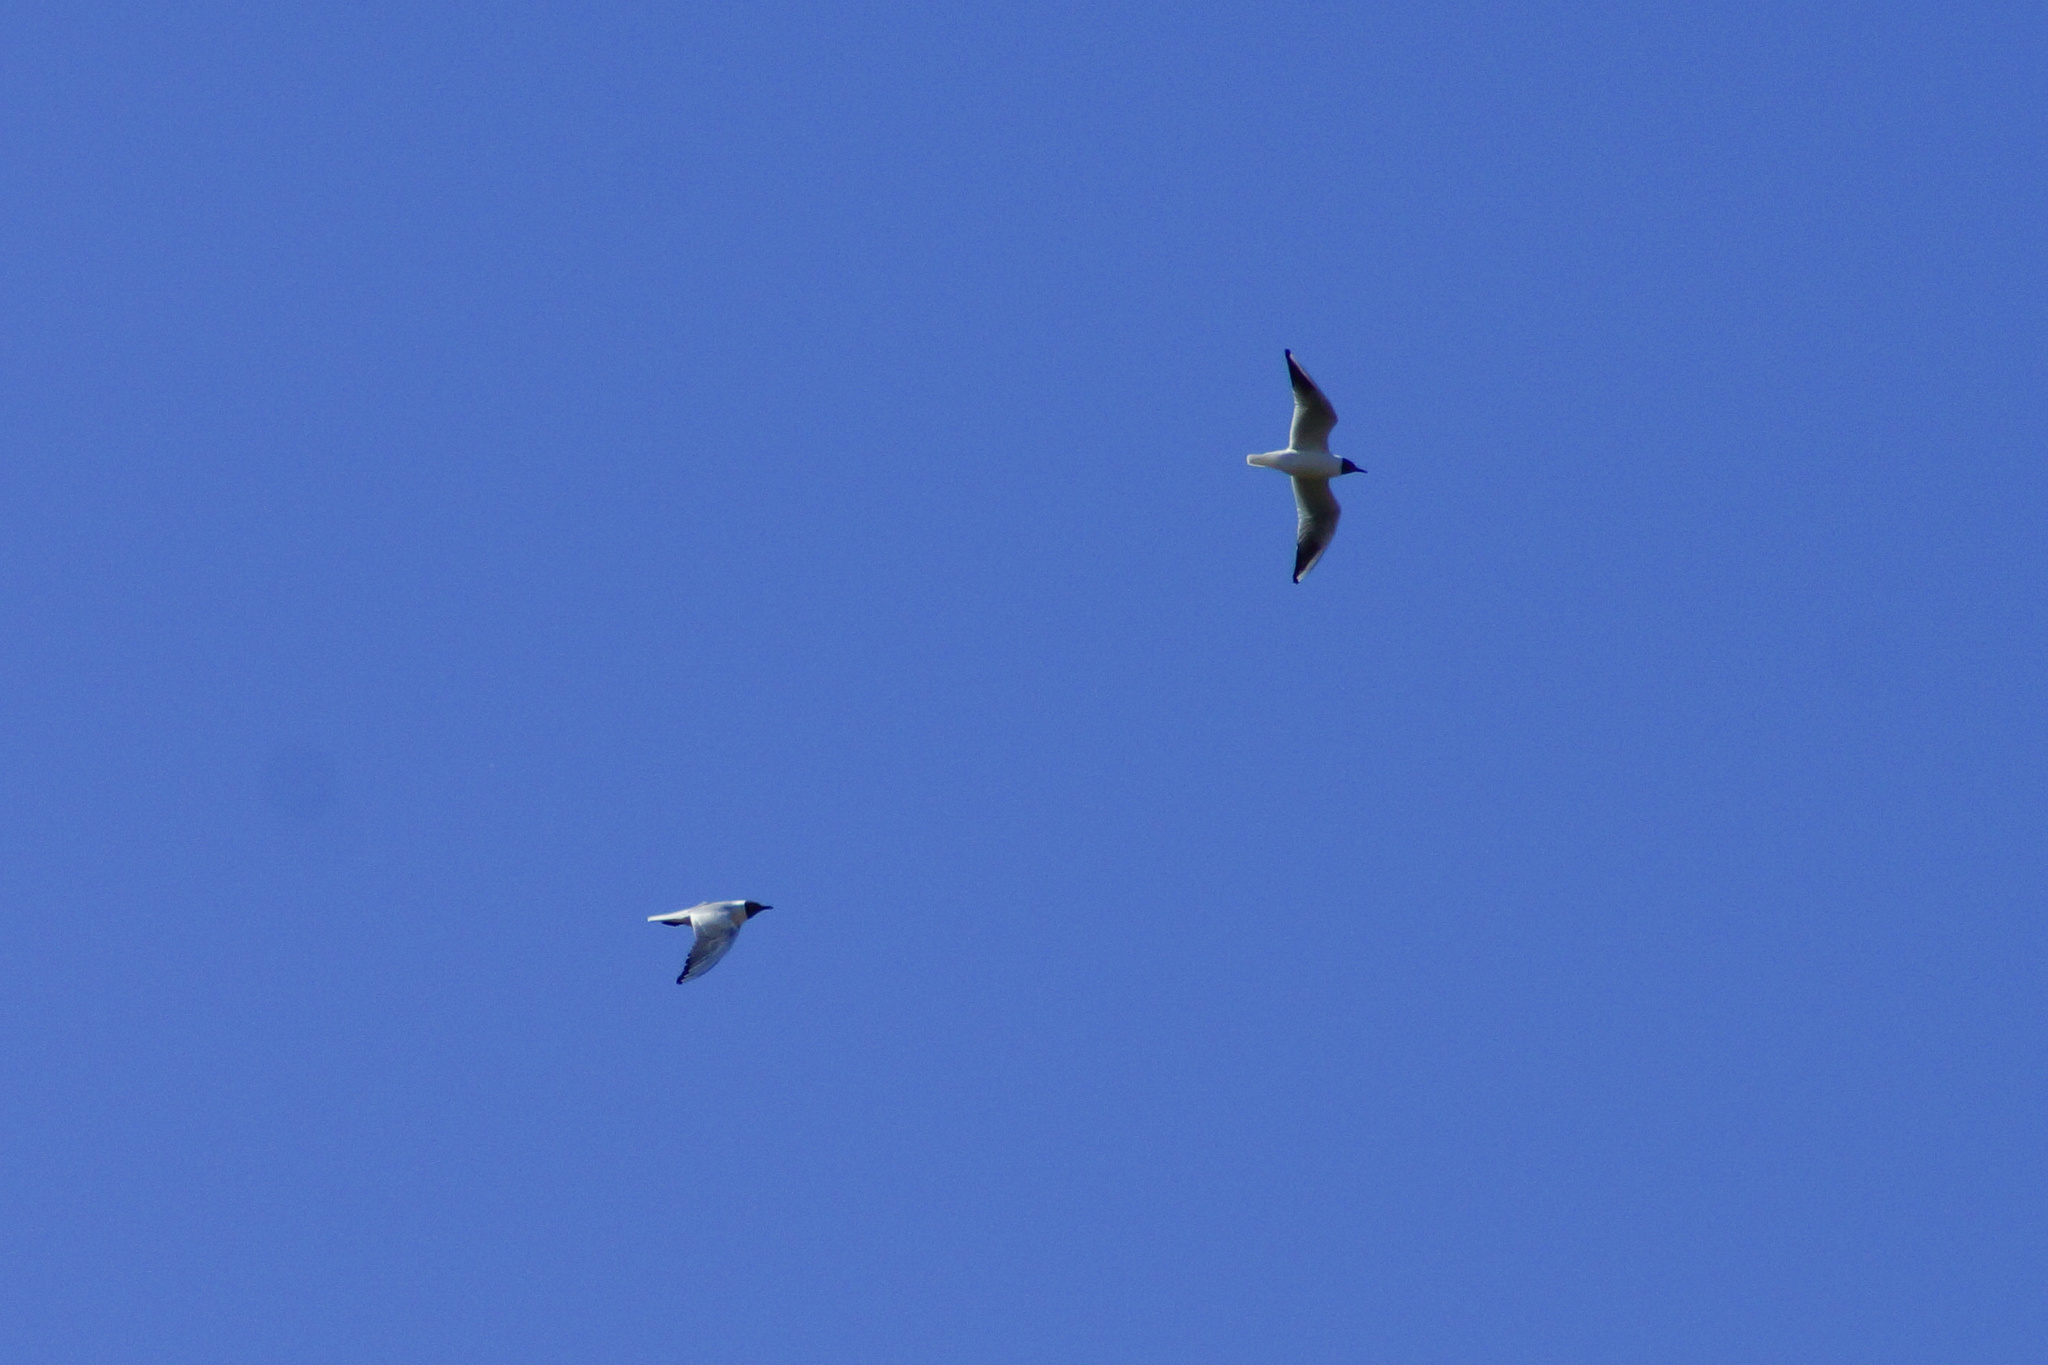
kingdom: Animalia
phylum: Chordata
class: Aves
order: Charadriiformes
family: Laridae
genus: Chroicocephalus
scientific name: Chroicocephalus ridibundus
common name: Black-headed gull
